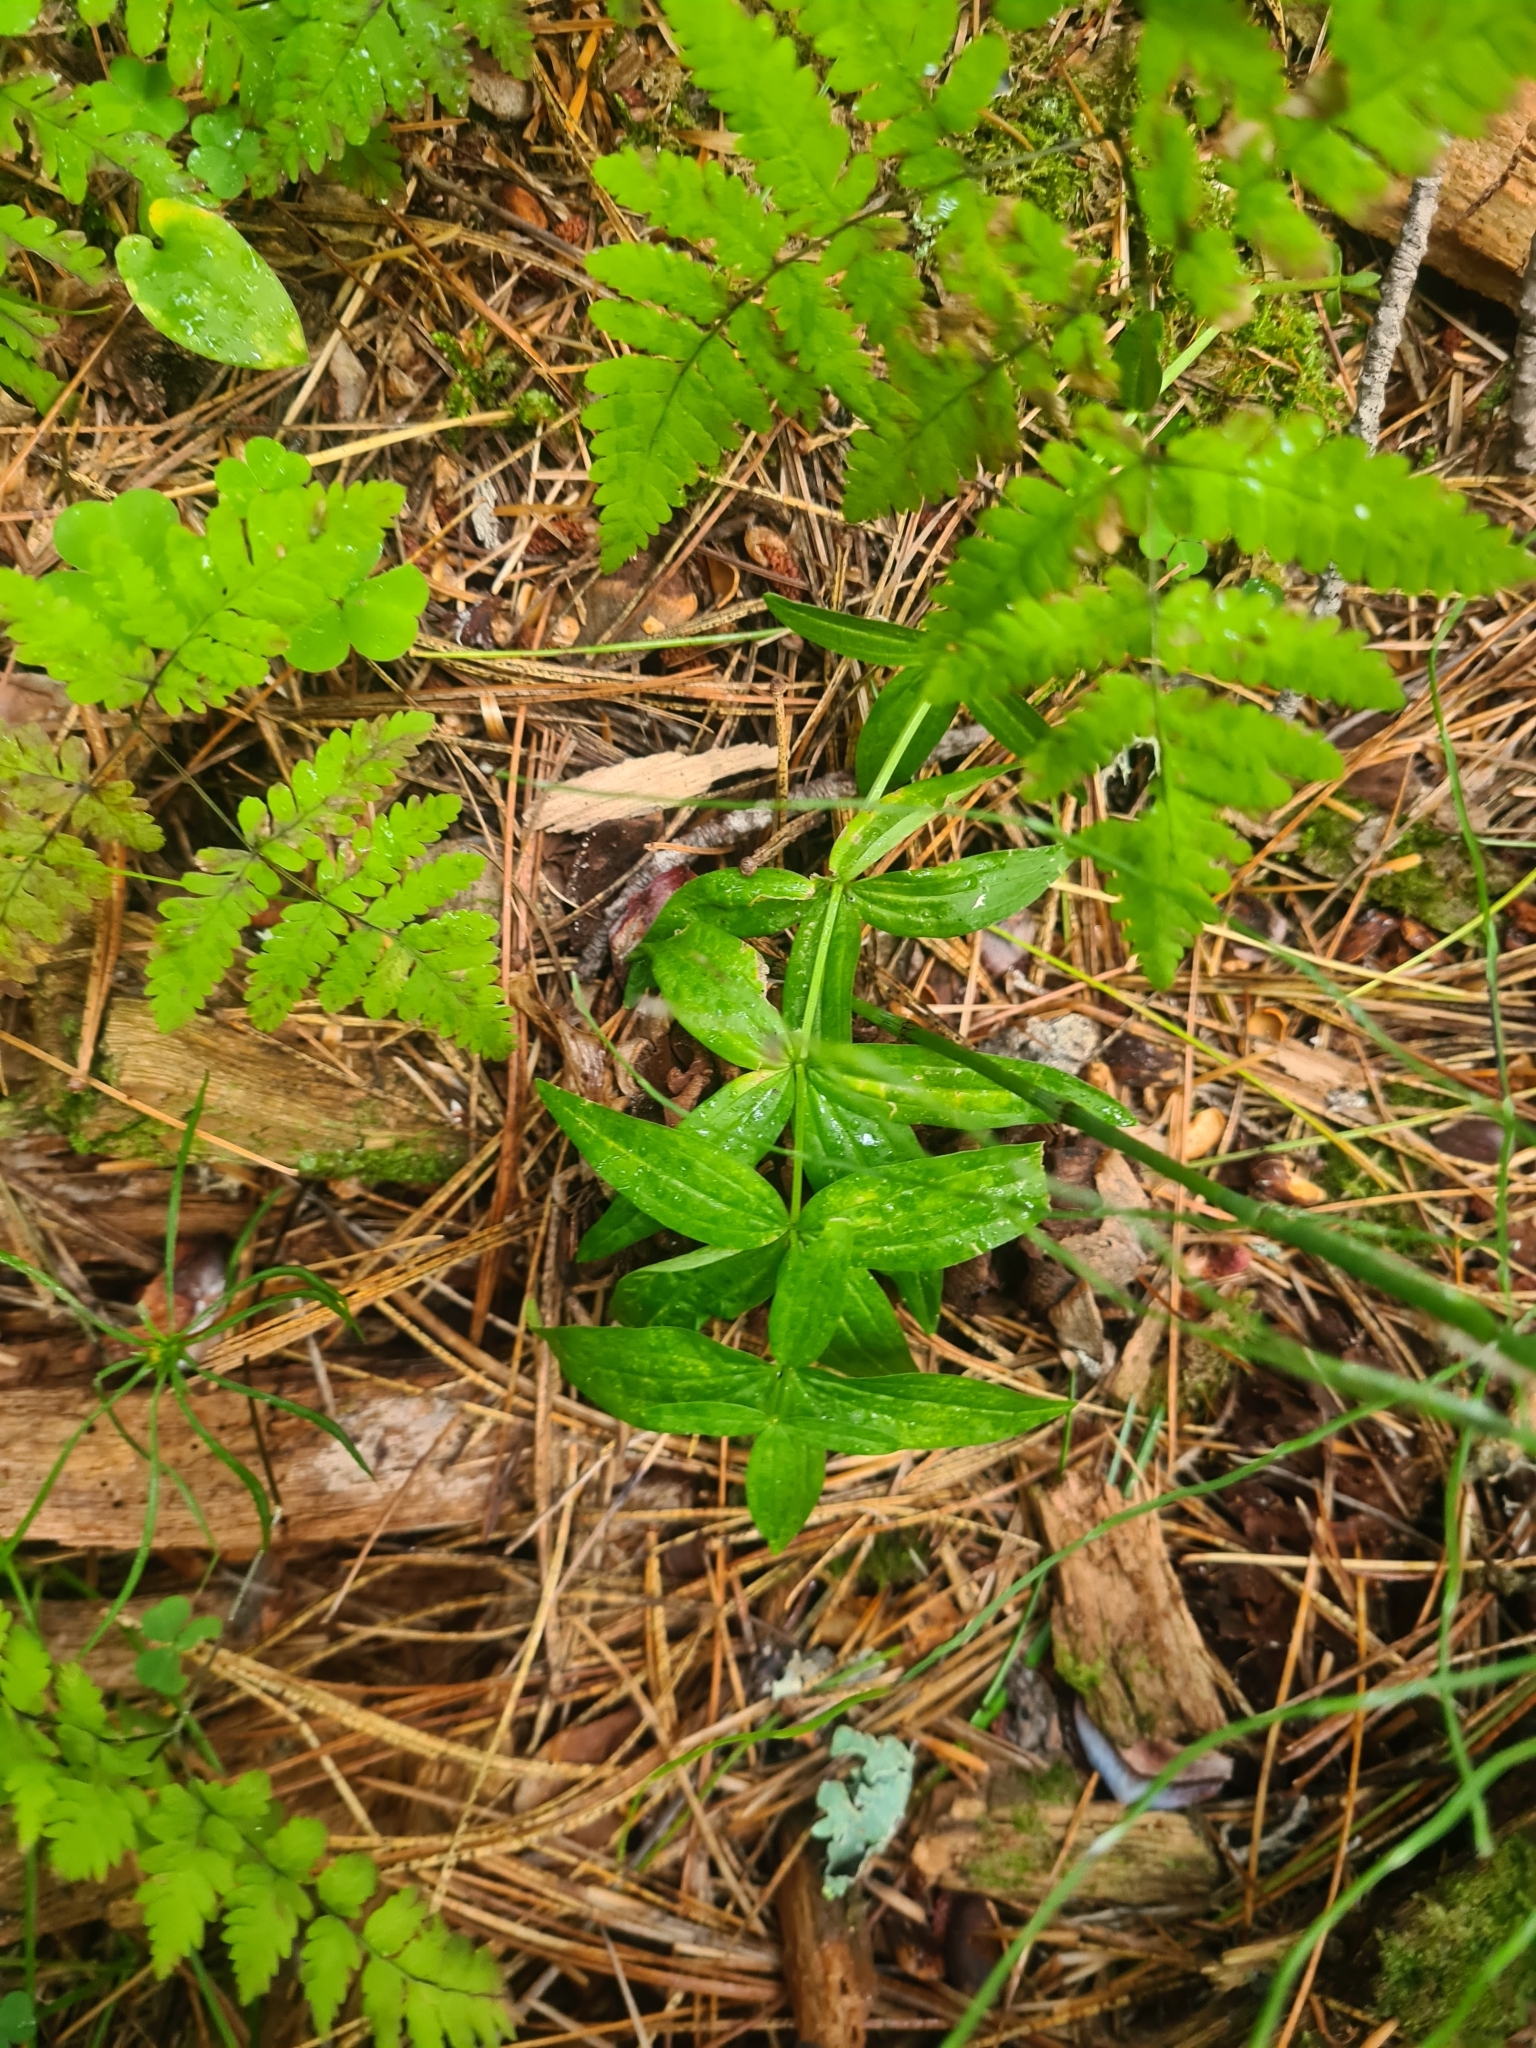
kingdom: Plantae
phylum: Tracheophyta
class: Magnoliopsida
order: Gentianales
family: Rubiaceae
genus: Galium
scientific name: Galium pseudoboreale
